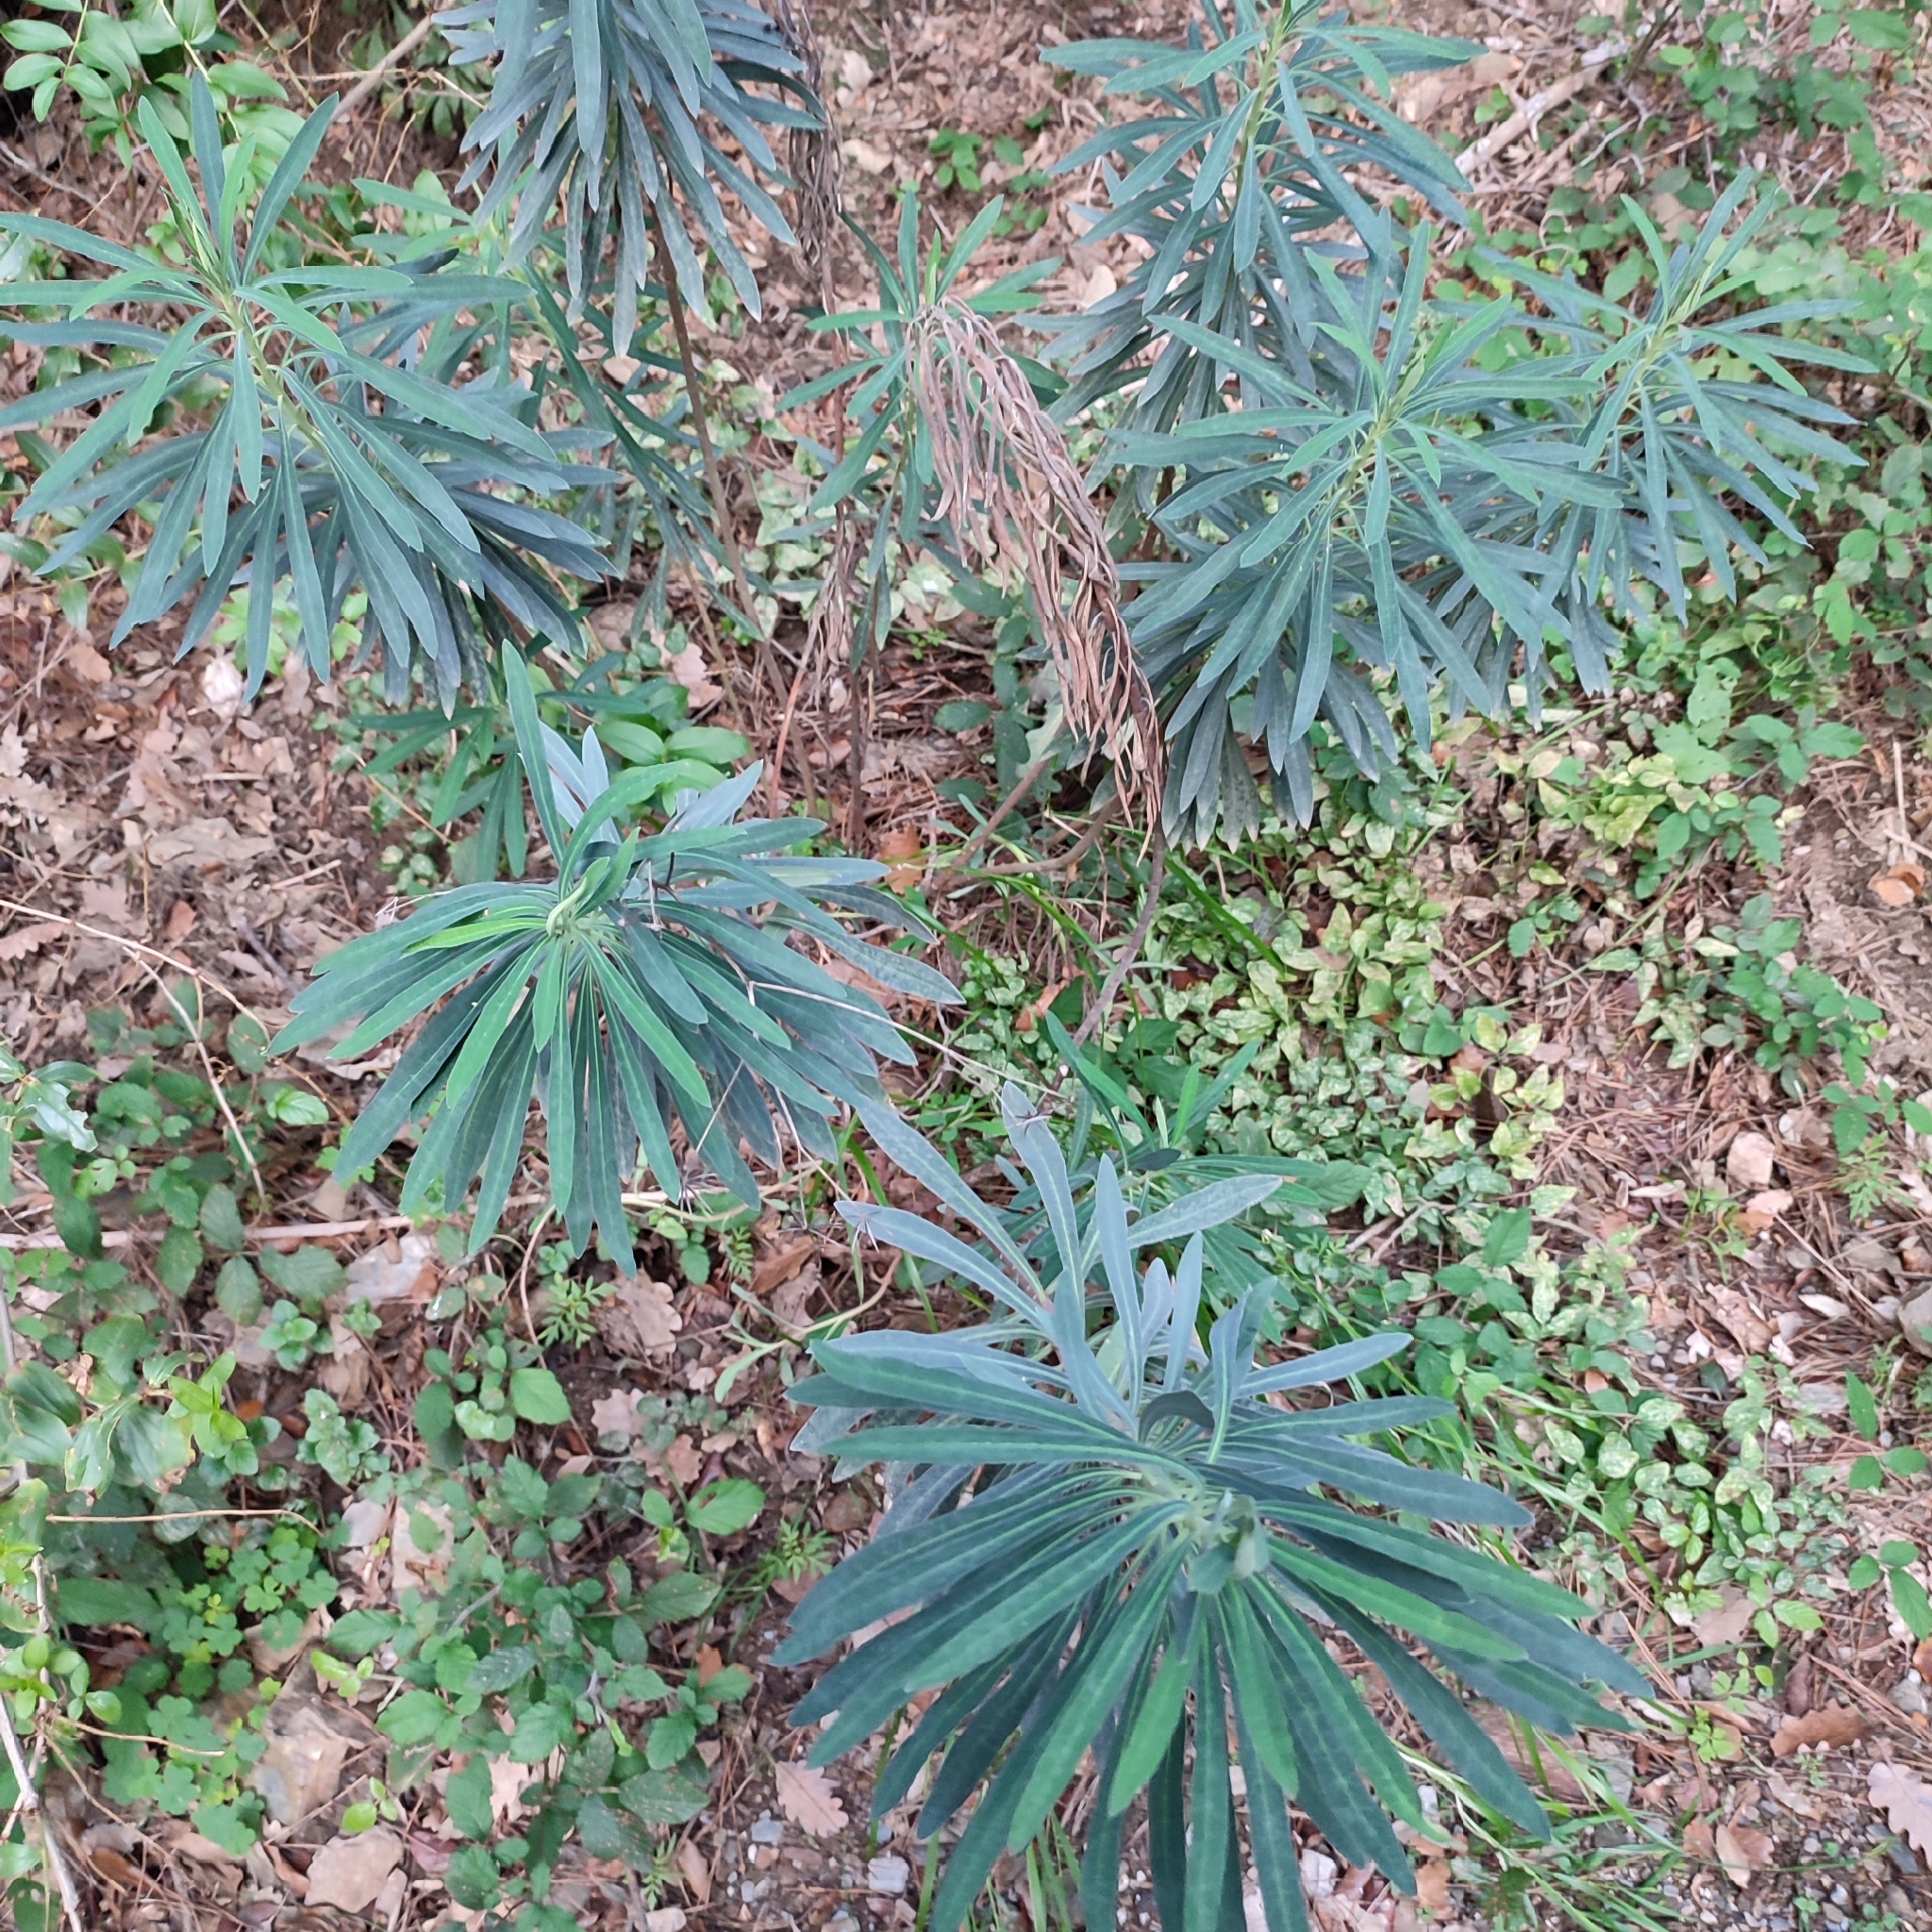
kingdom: Plantae
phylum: Tracheophyta
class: Magnoliopsida
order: Malpighiales
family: Euphorbiaceae
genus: Euphorbia
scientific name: Euphorbia characias
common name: Mediterranean spurge
